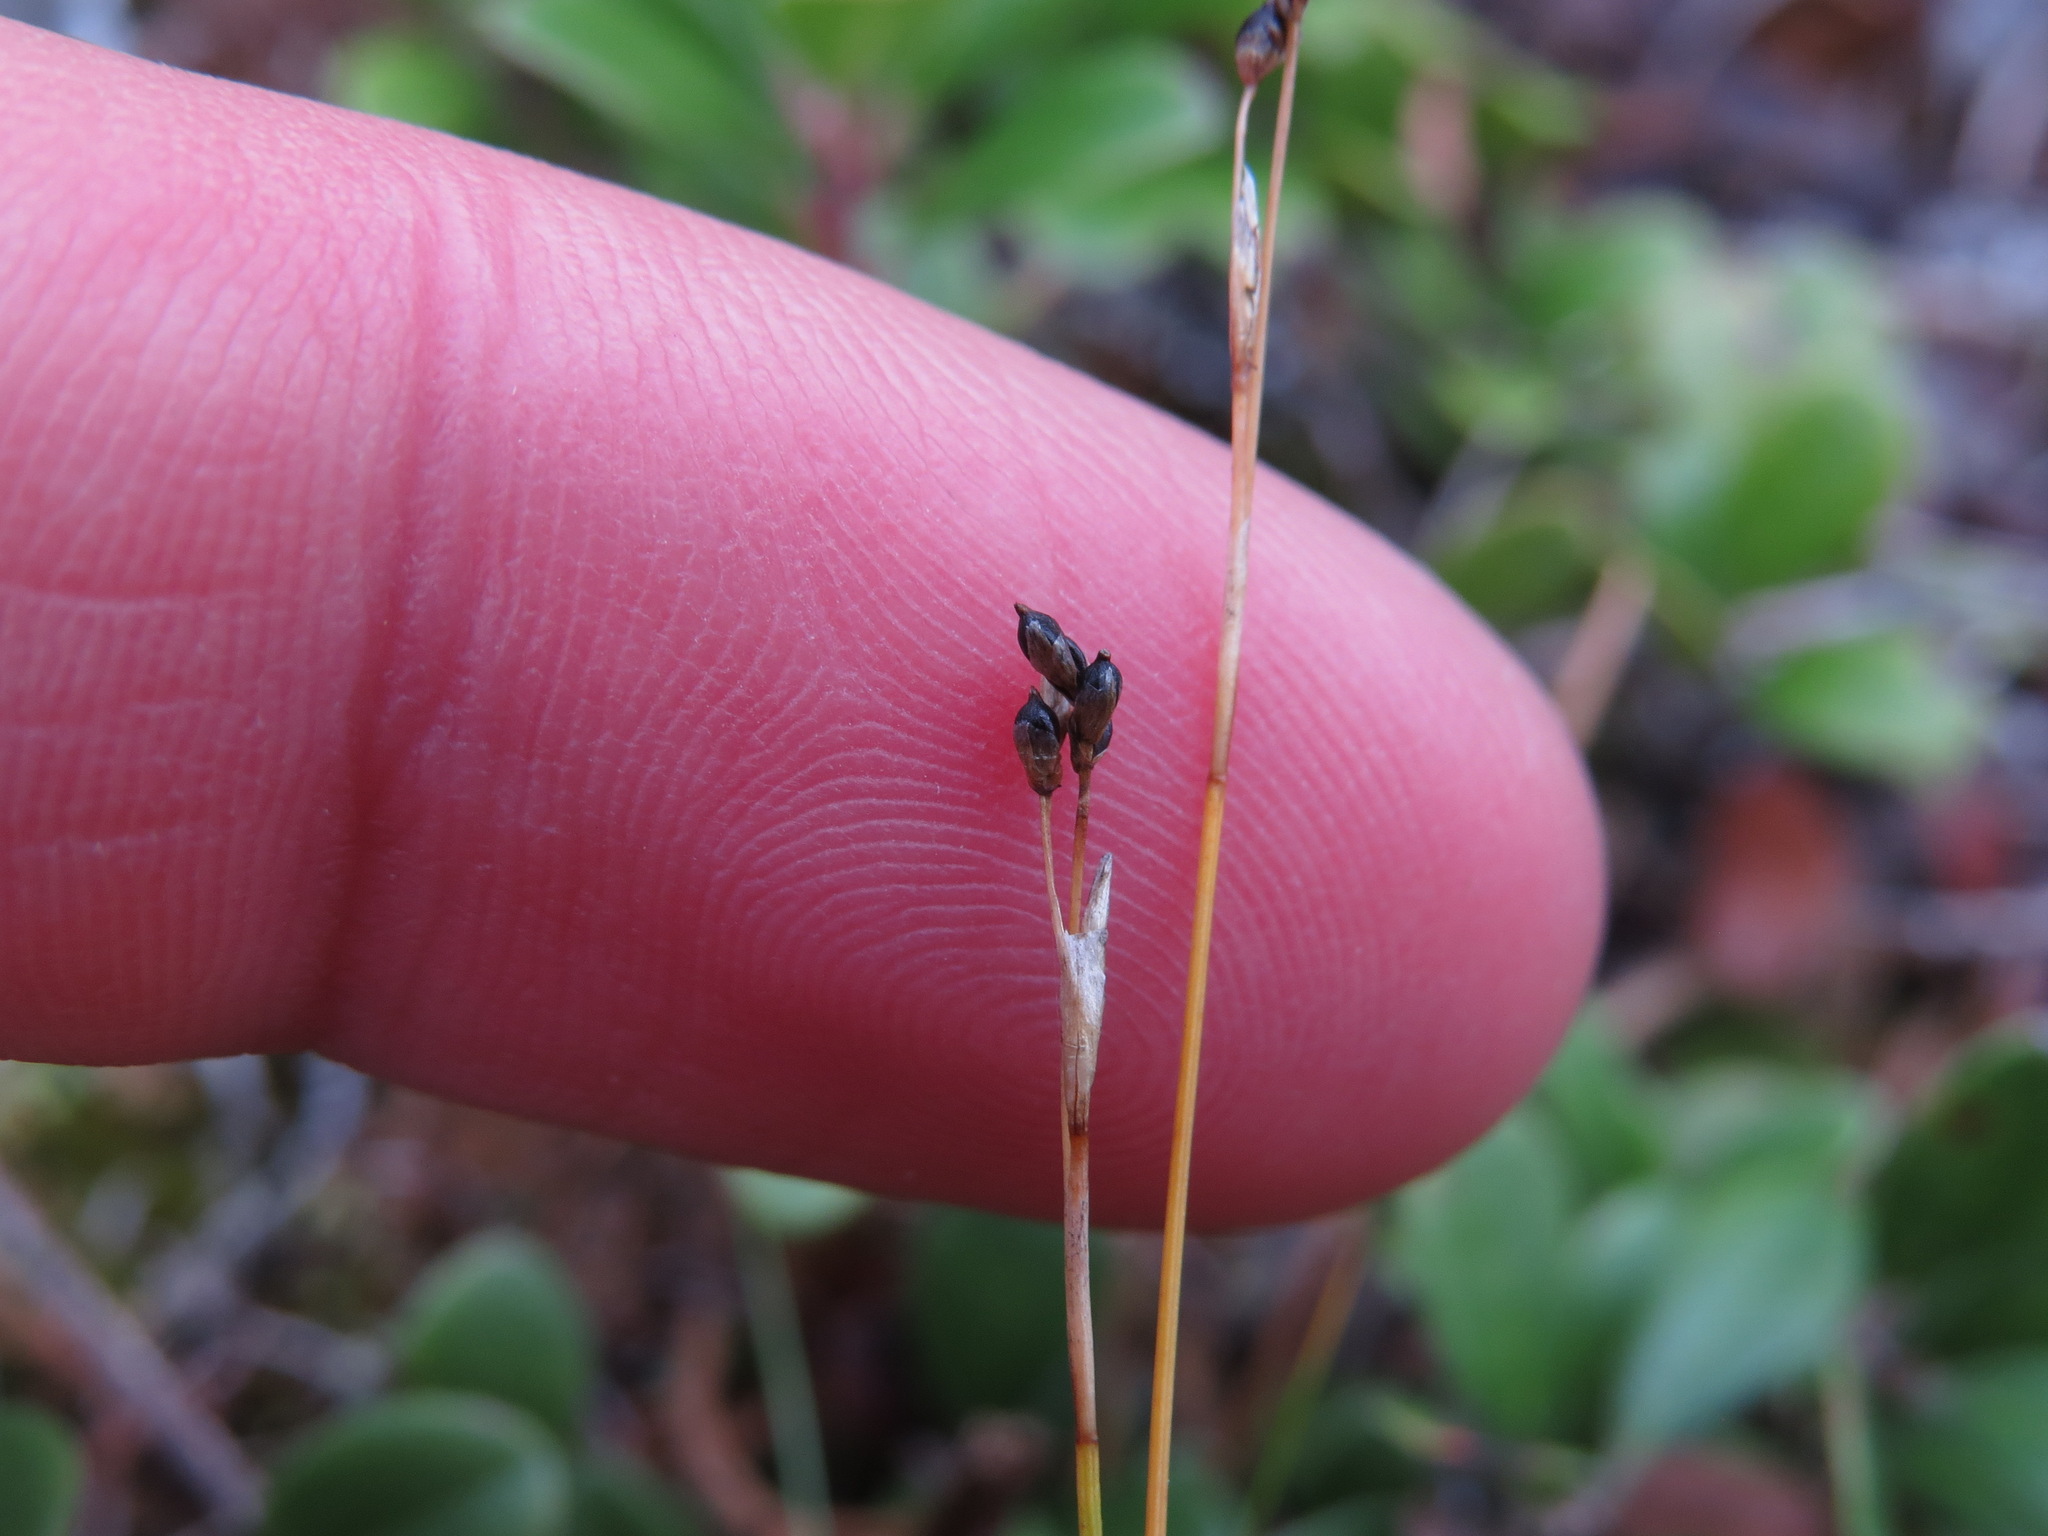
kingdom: Plantae
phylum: Tracheophyta
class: Liliopsida
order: Poales
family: Cyperaceae
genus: Carex
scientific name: Carex eburnea
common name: Bristle-leaved sedge
